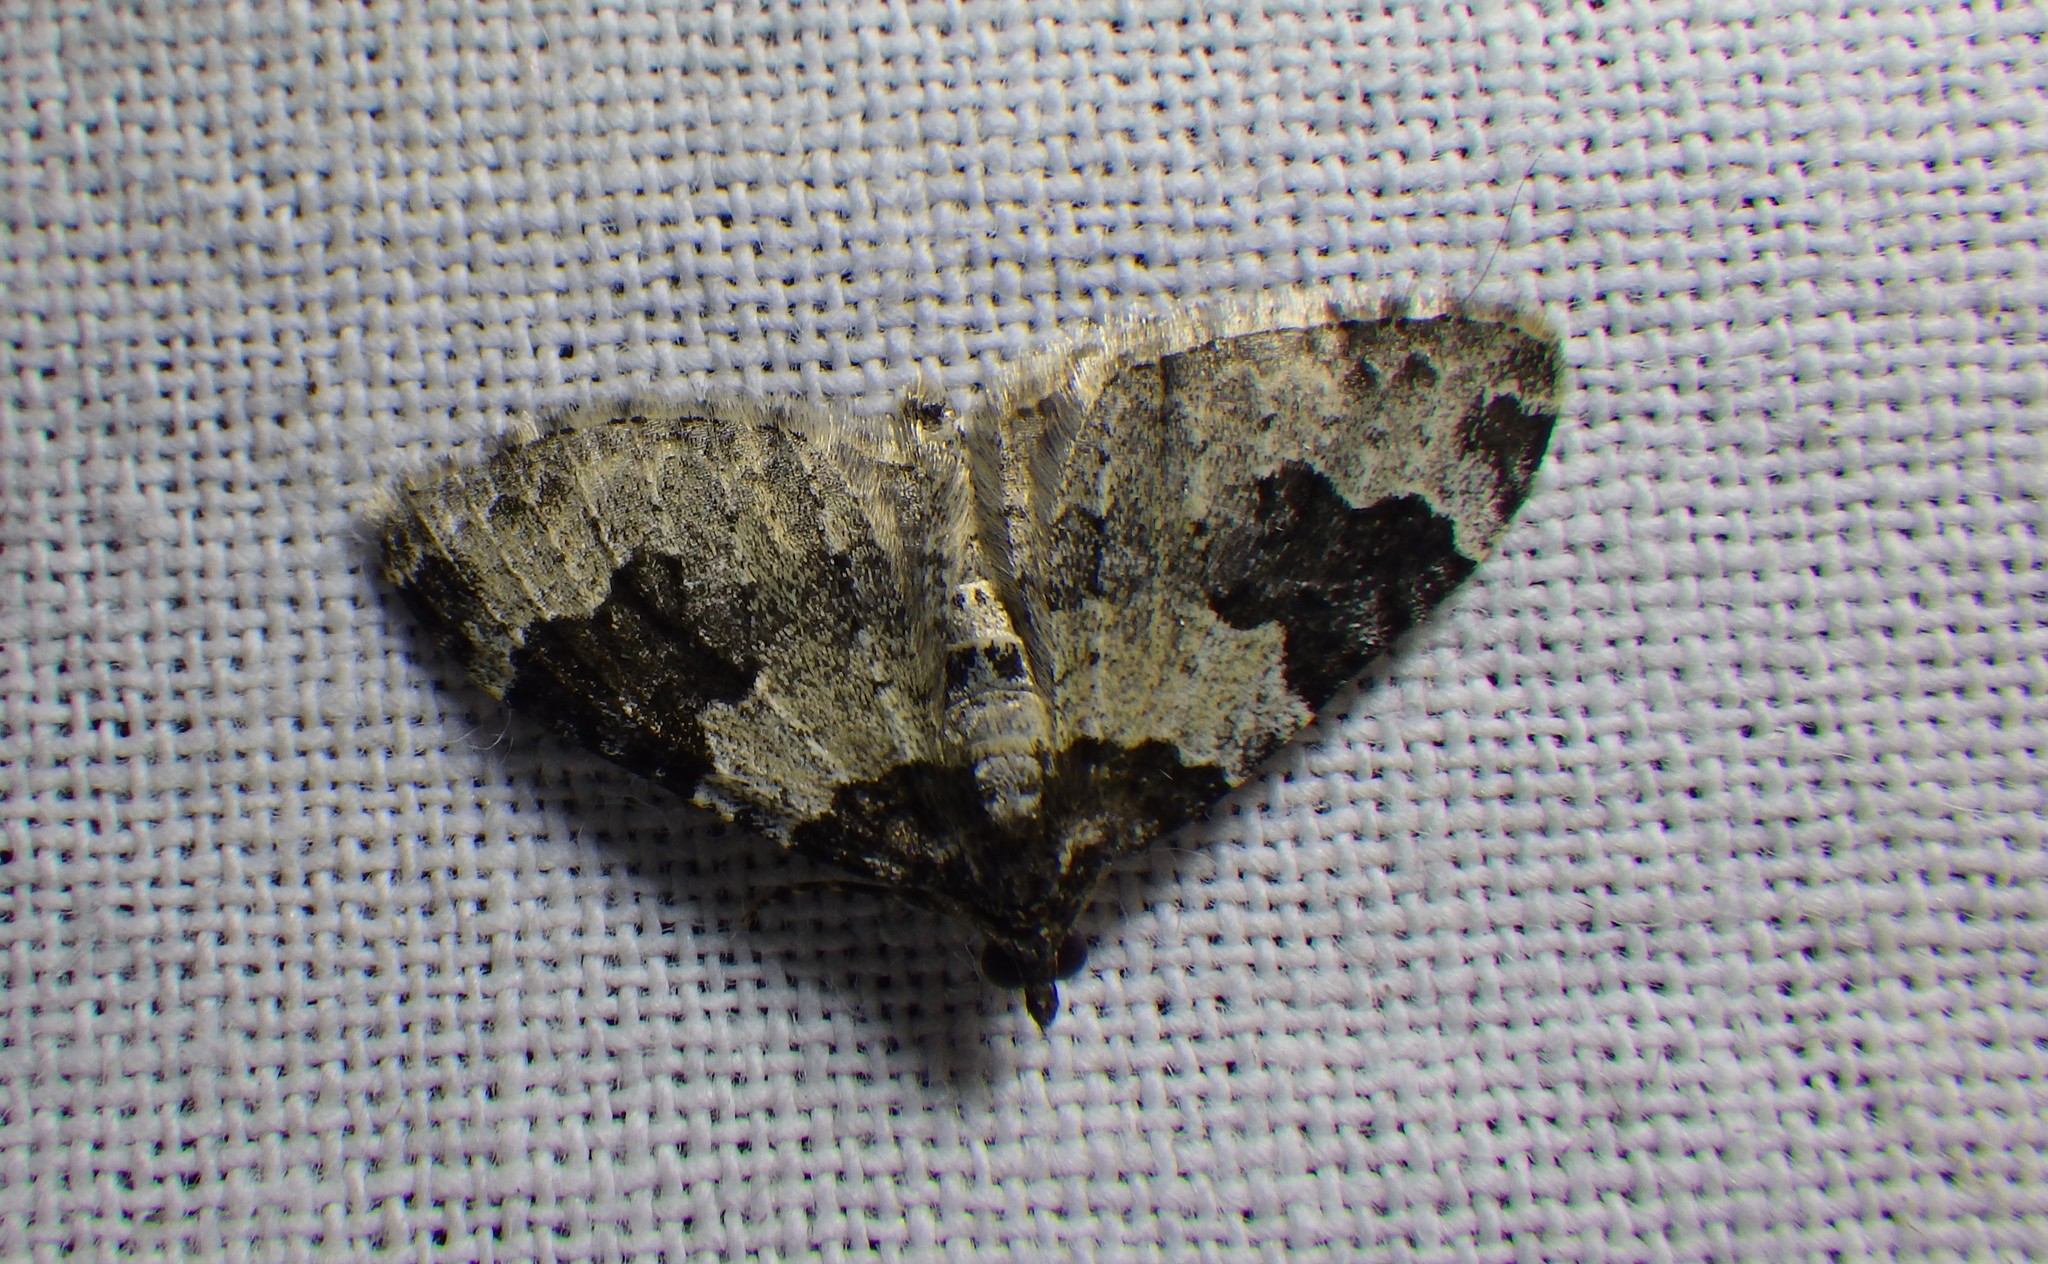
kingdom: Animalia
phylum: Arthropoda
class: Insecta
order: Lepidoptera
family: Geometridae
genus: Xanthorhoe
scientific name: Xanthorhoe fluctuata
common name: Garden carpet
